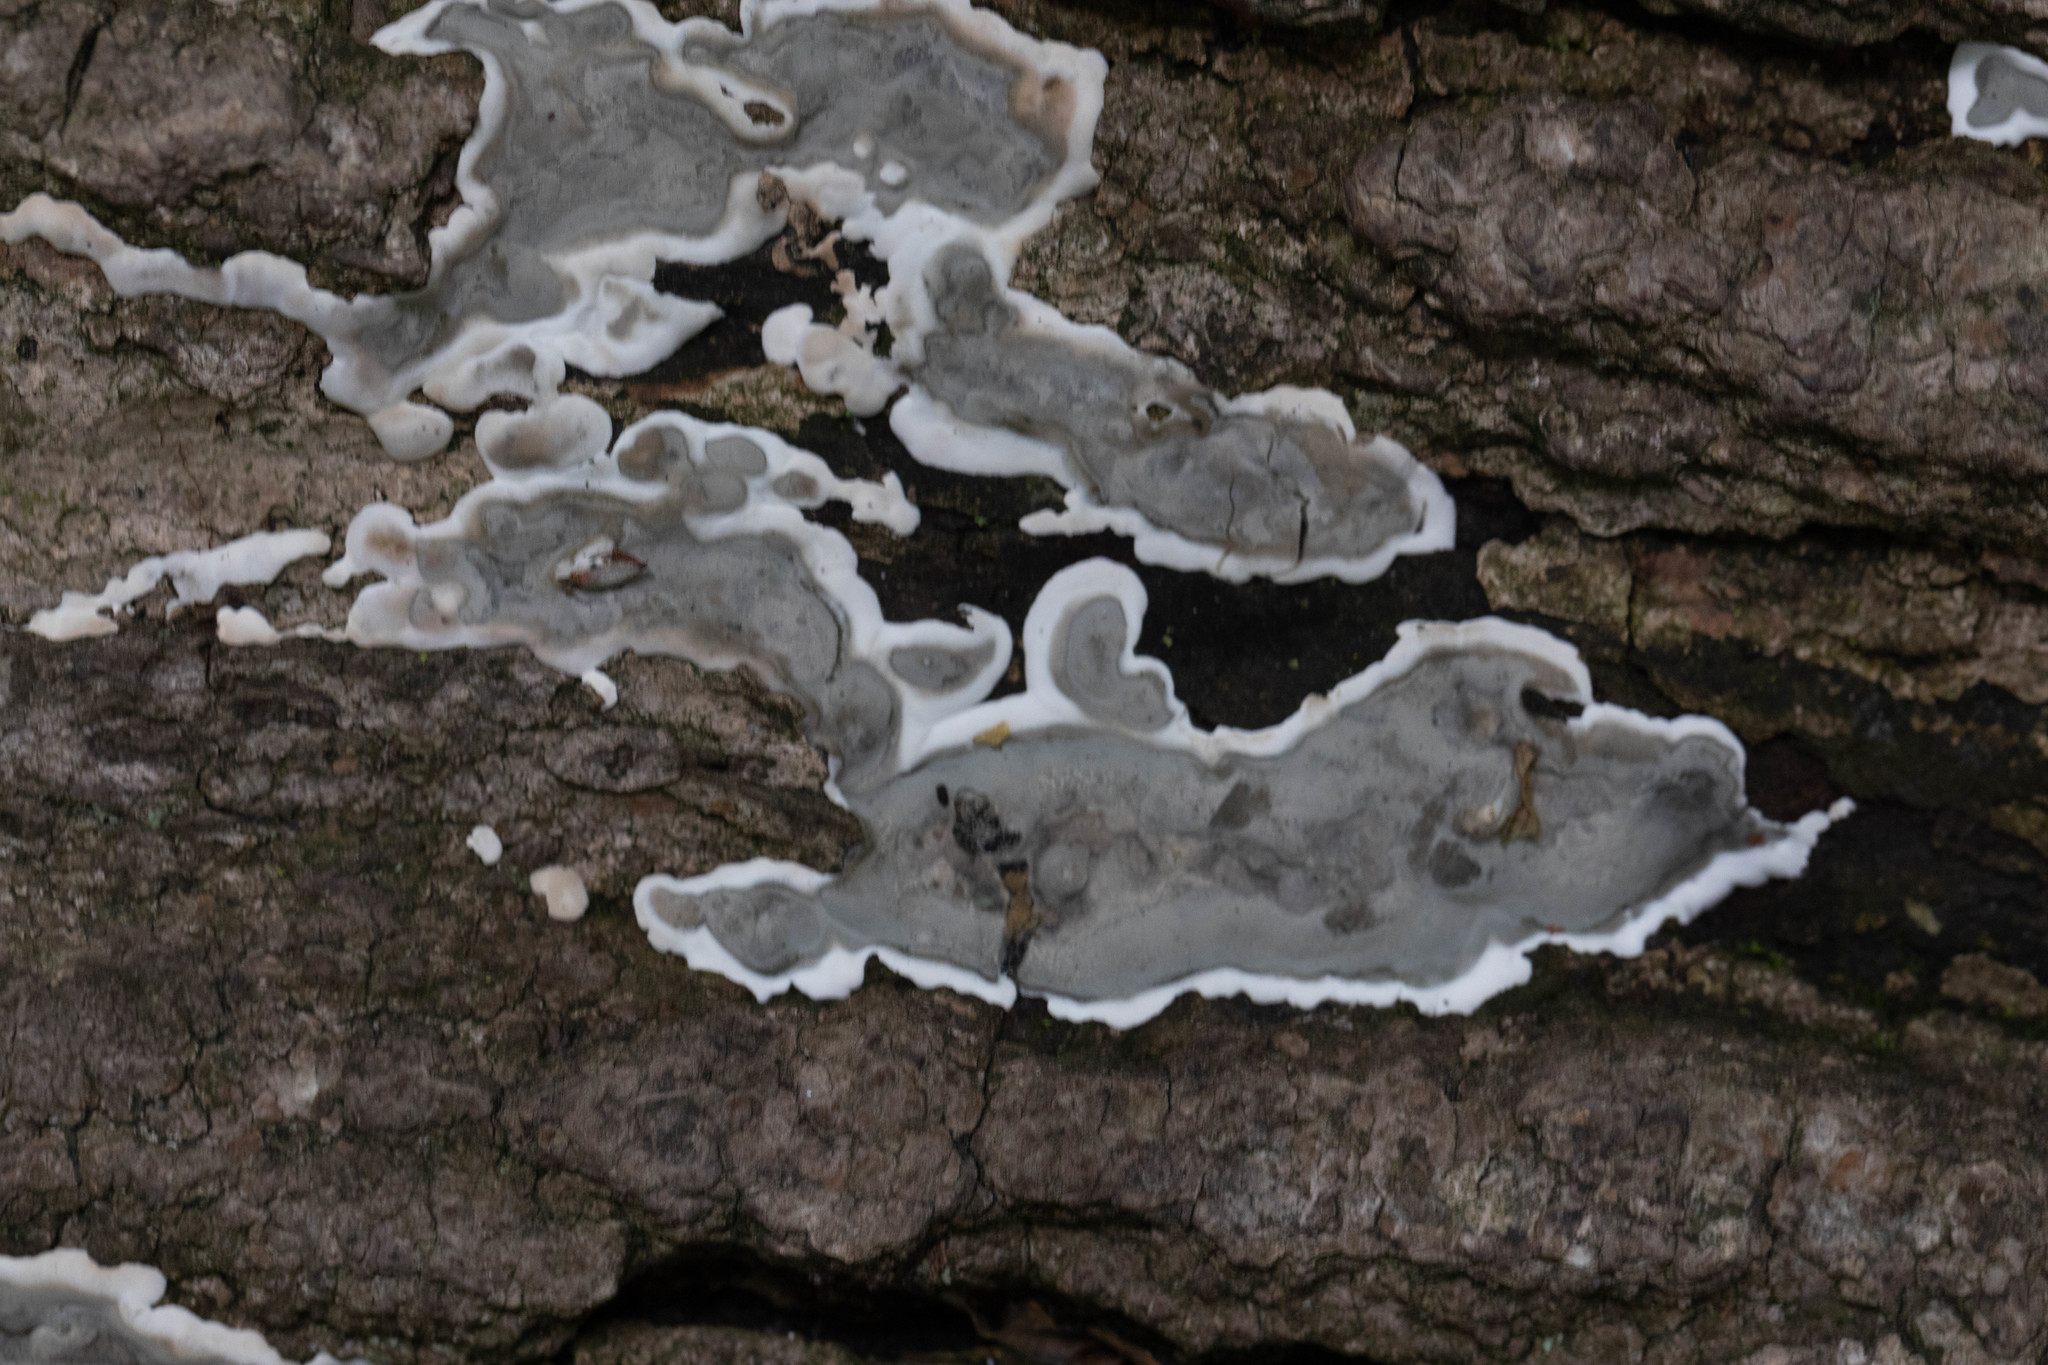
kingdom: Fungi
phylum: Ascomycota
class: Sordariomycetes
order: Xylariales
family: Xylariaceae
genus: Kretzschmaria
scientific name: Kretzschmaria deusta
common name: Brittle cinder
